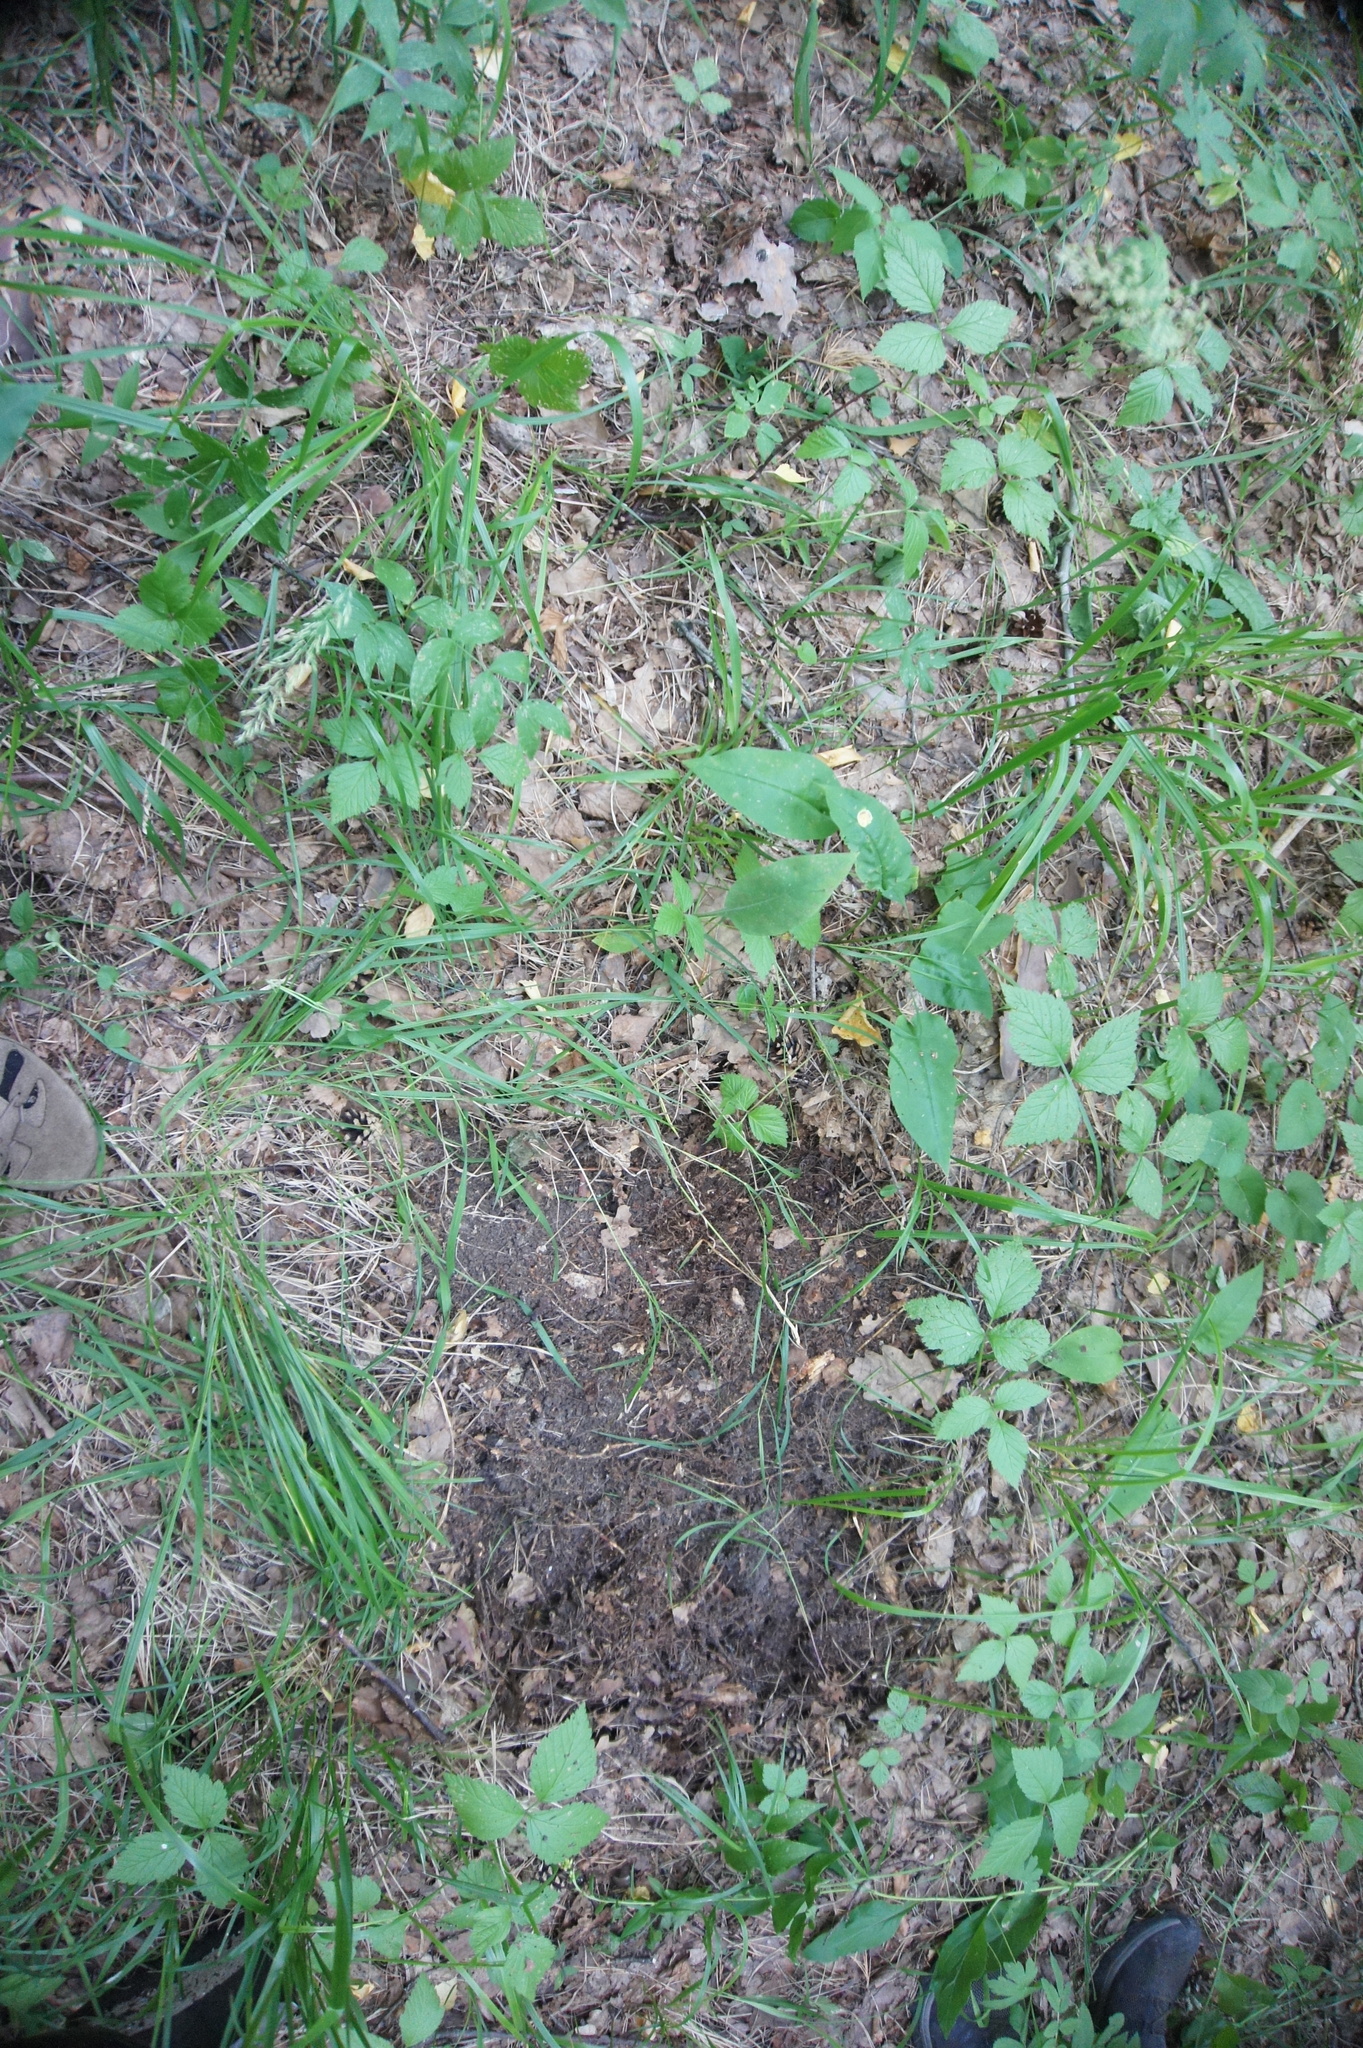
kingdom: Plantae
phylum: Tracheophyta
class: Magnoliopsida
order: Rosales
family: Rosaceae
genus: Rubus
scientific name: Rubus saxatilis
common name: Stone bramble
